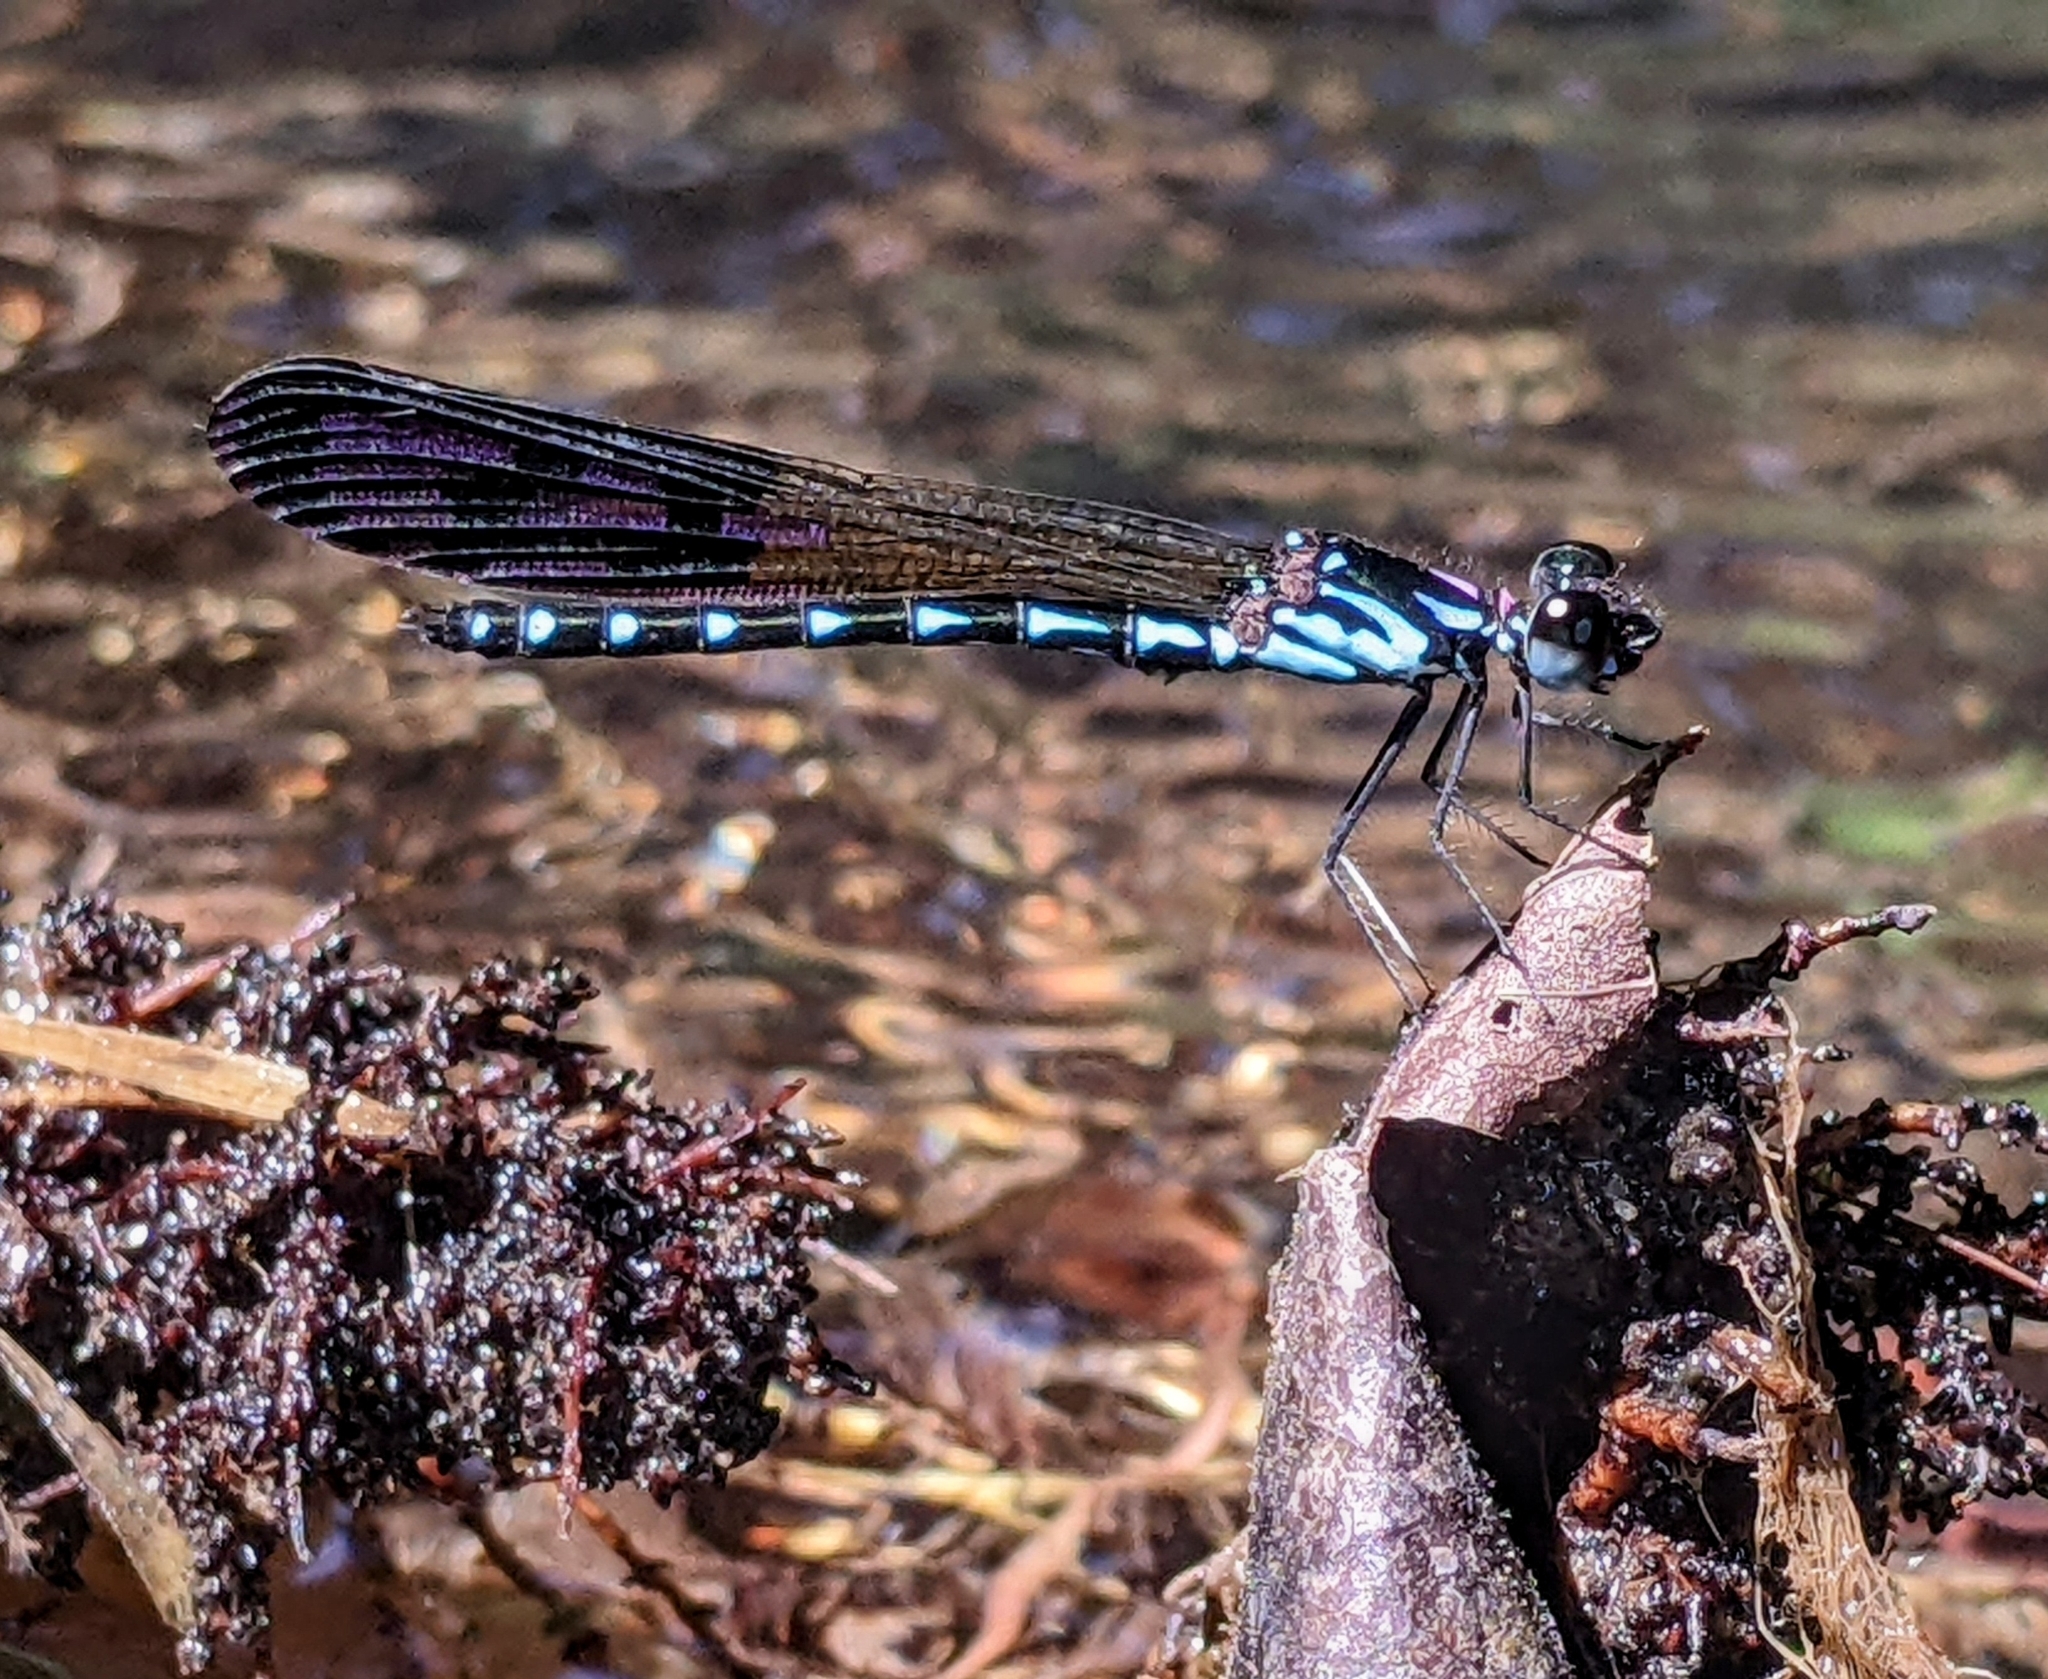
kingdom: Animalia
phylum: Arthropoda
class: Insecta
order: Odonata
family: Chlorocyphidae
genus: Heliocypha
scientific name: Heliocypha perforata
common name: Common blue jewel
